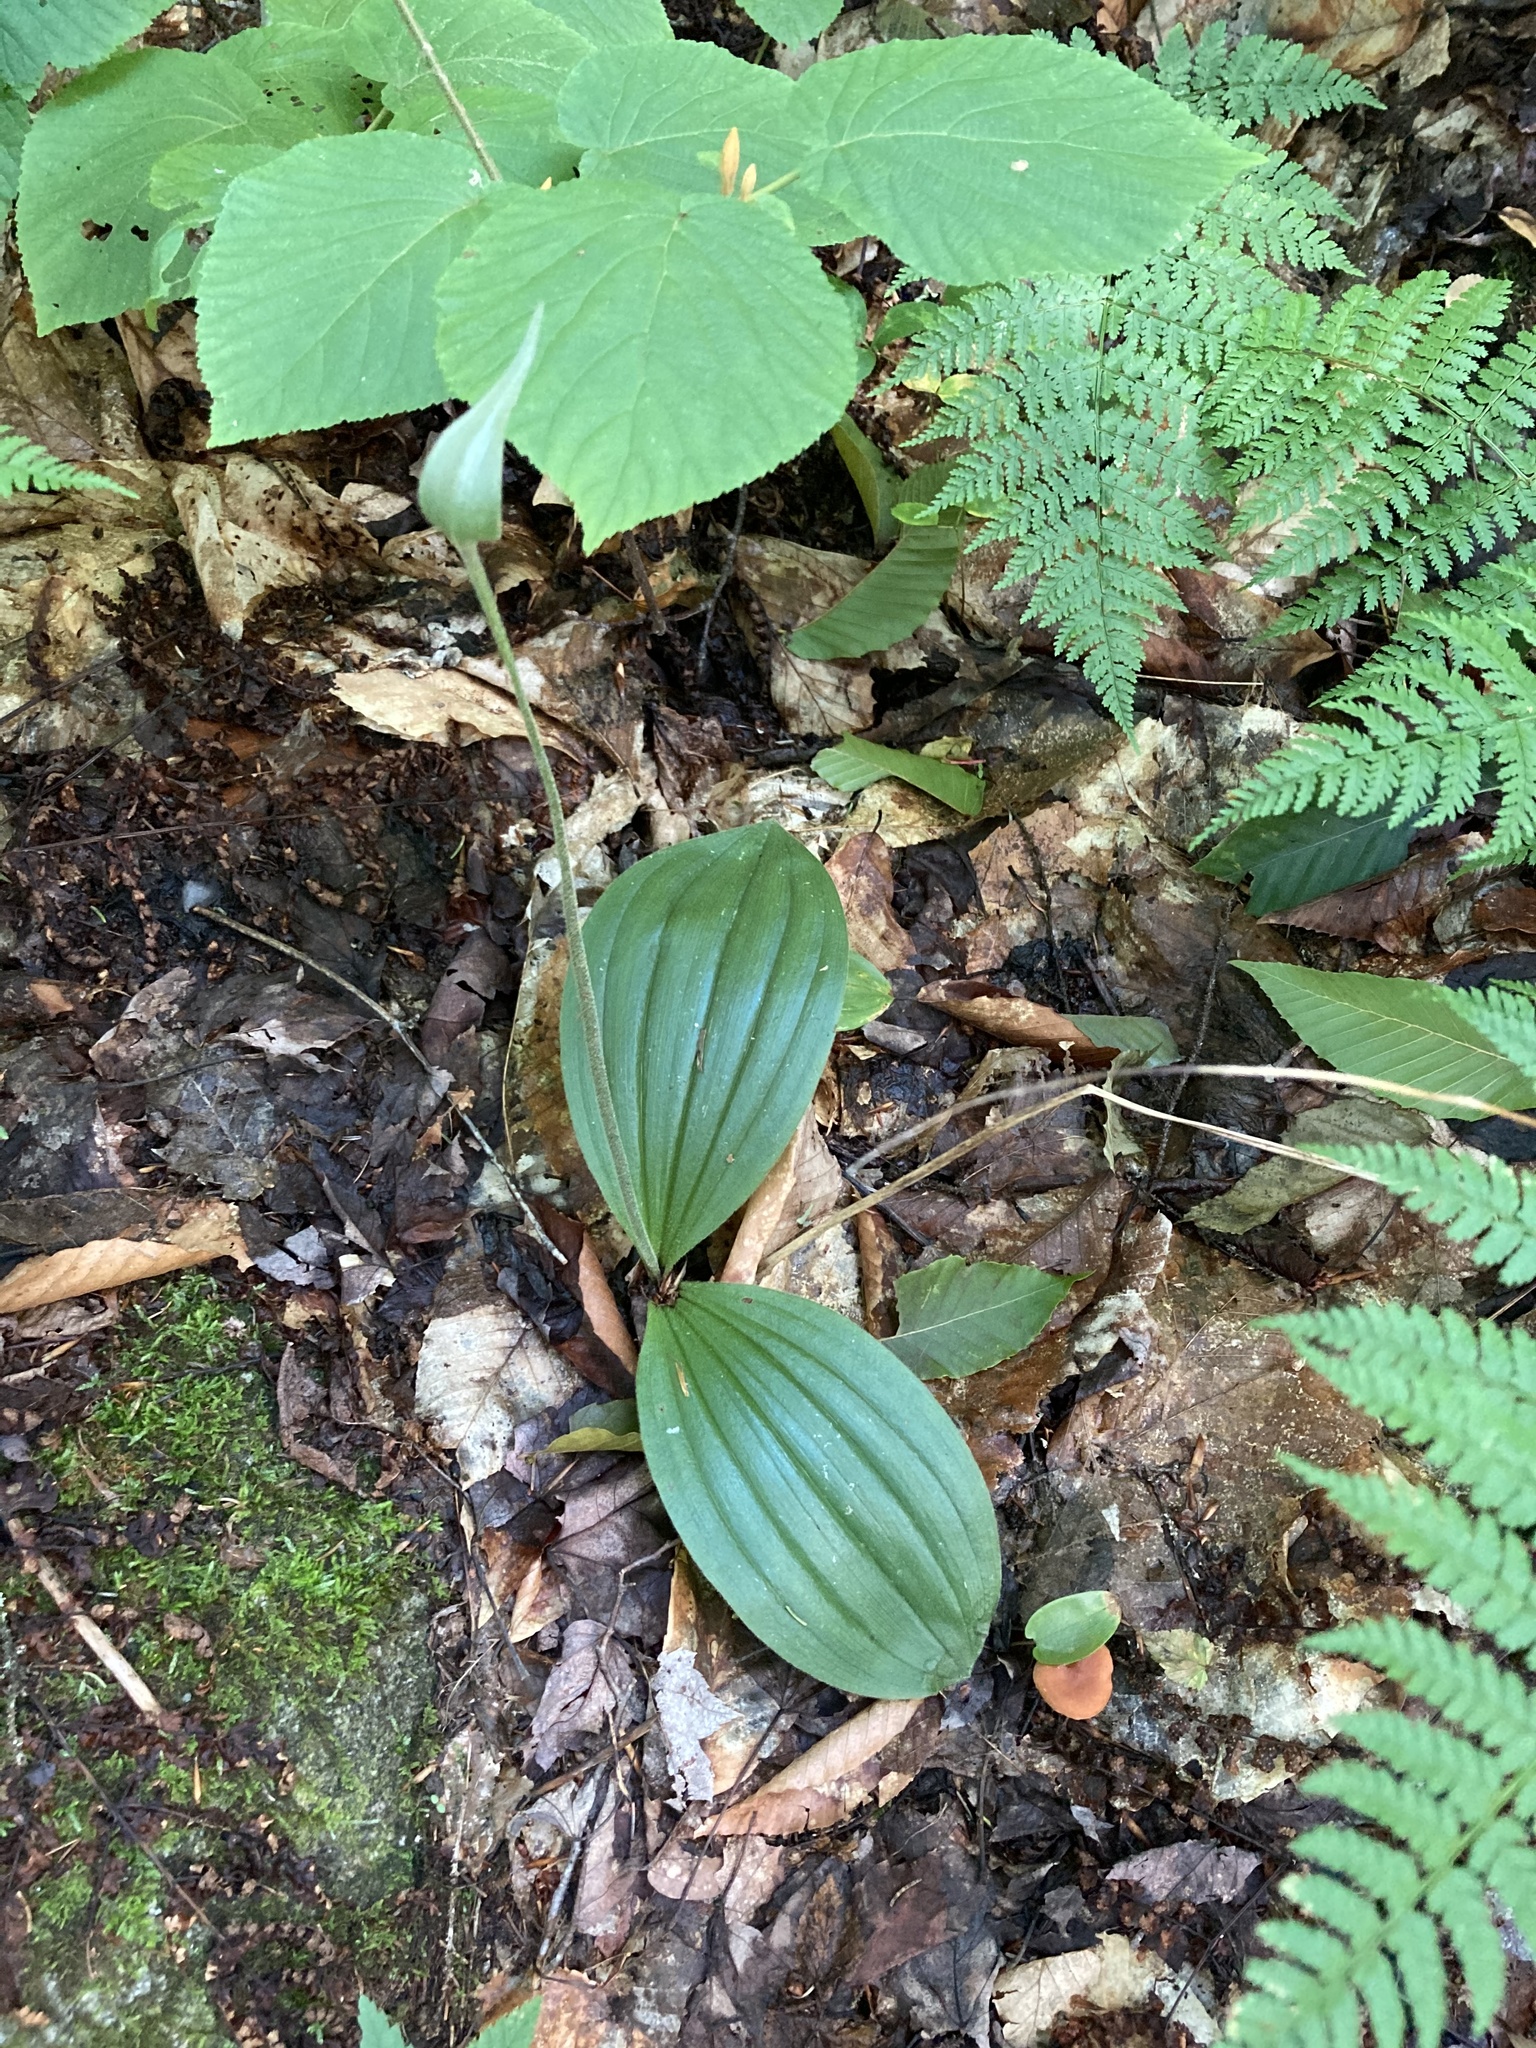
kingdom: Plantae
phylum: Tracheophyta
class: Liliopsida
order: Asparagales
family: Orchidaceae
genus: Cypripedium
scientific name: Cypripedium acaule
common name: Pink lady's-slipper
